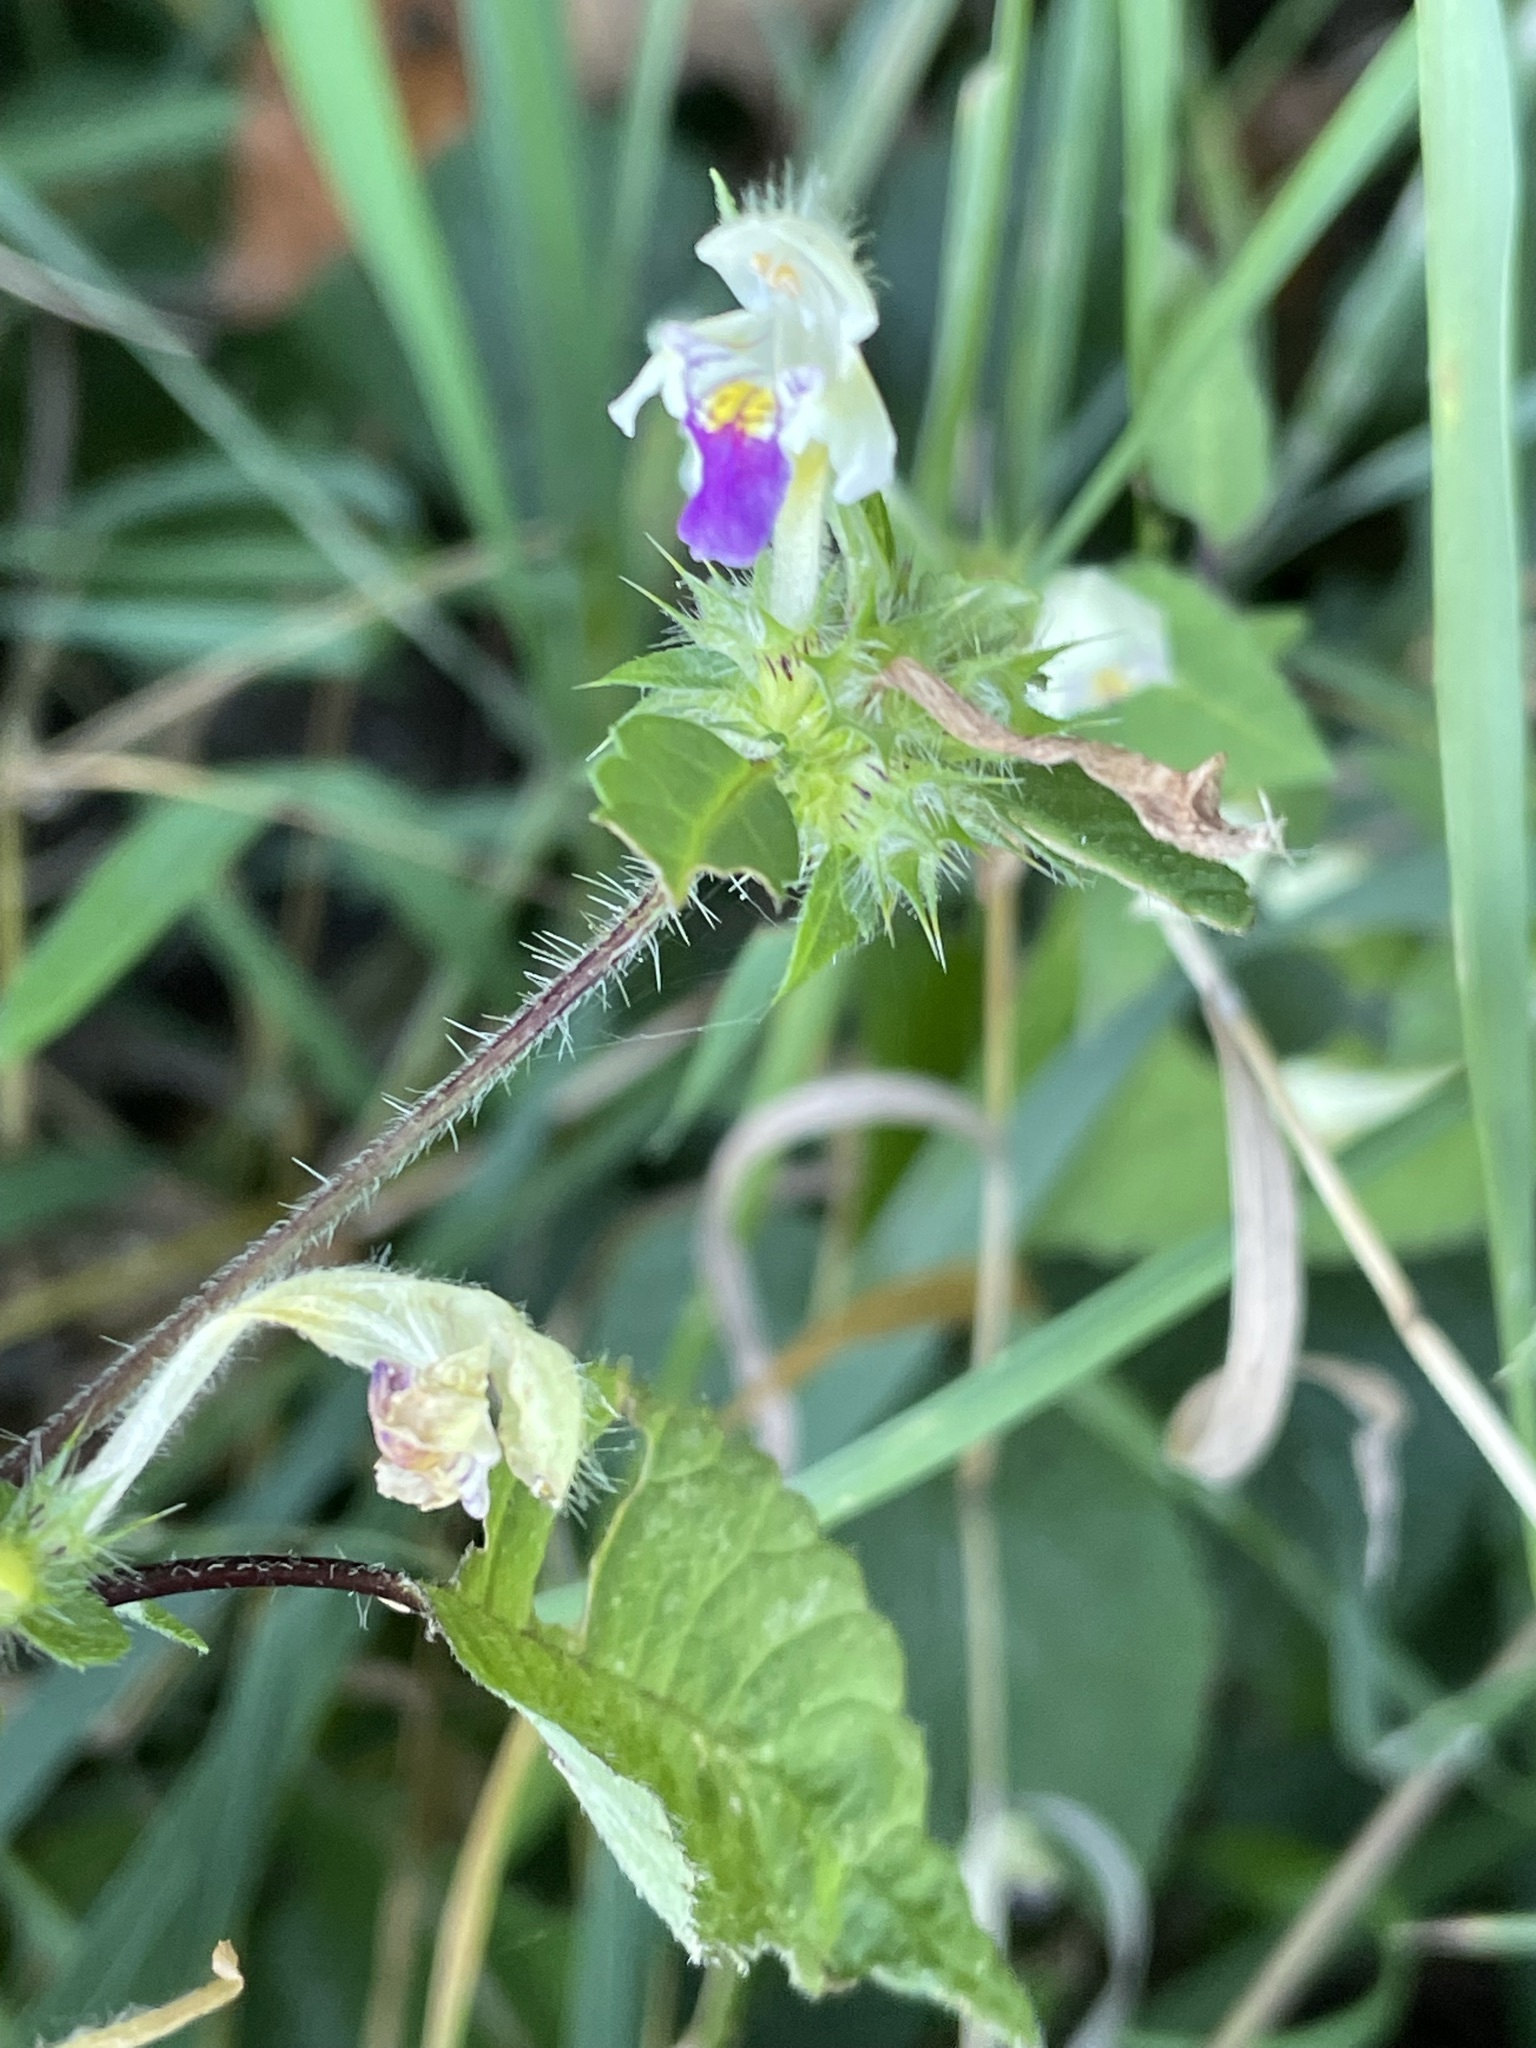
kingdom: Plantae
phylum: Tracheophyta
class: Magnoliopsida
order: Lamiales
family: Lamiaceae
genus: Galeopsis
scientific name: Galeopsis speciosa
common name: Large-flowered hemp-nettle
